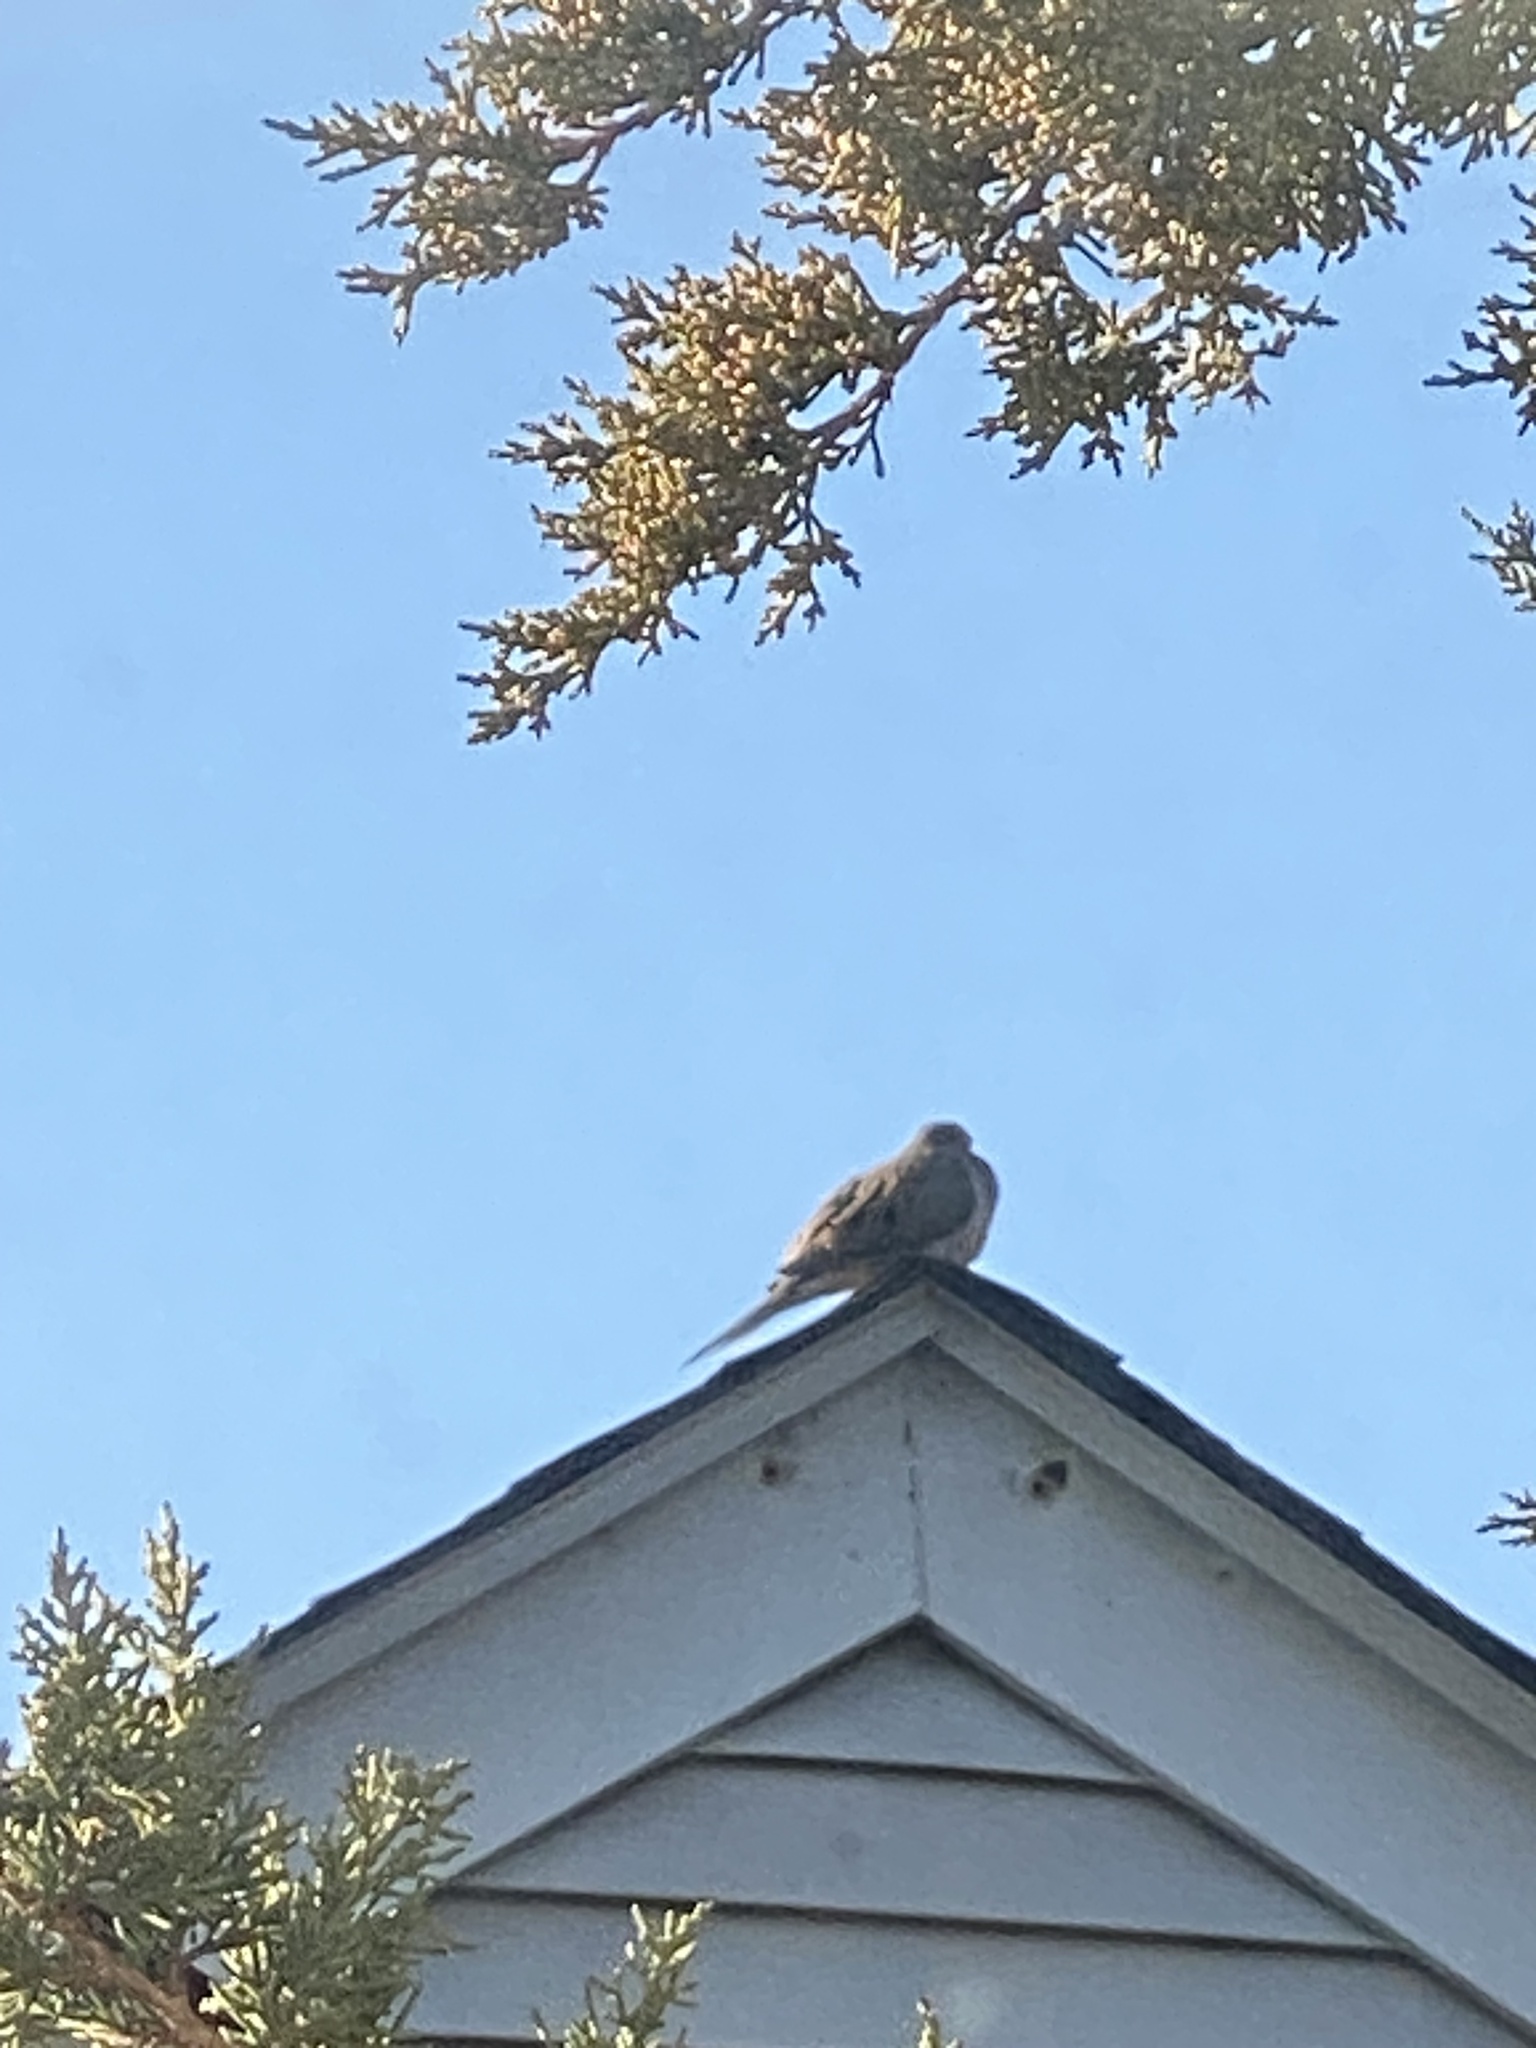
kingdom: Animalia
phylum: Chordata
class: Aves
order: Columbiformes
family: Columbidae
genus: Zenaida
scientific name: Zenaida macroura
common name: Mourning dove
